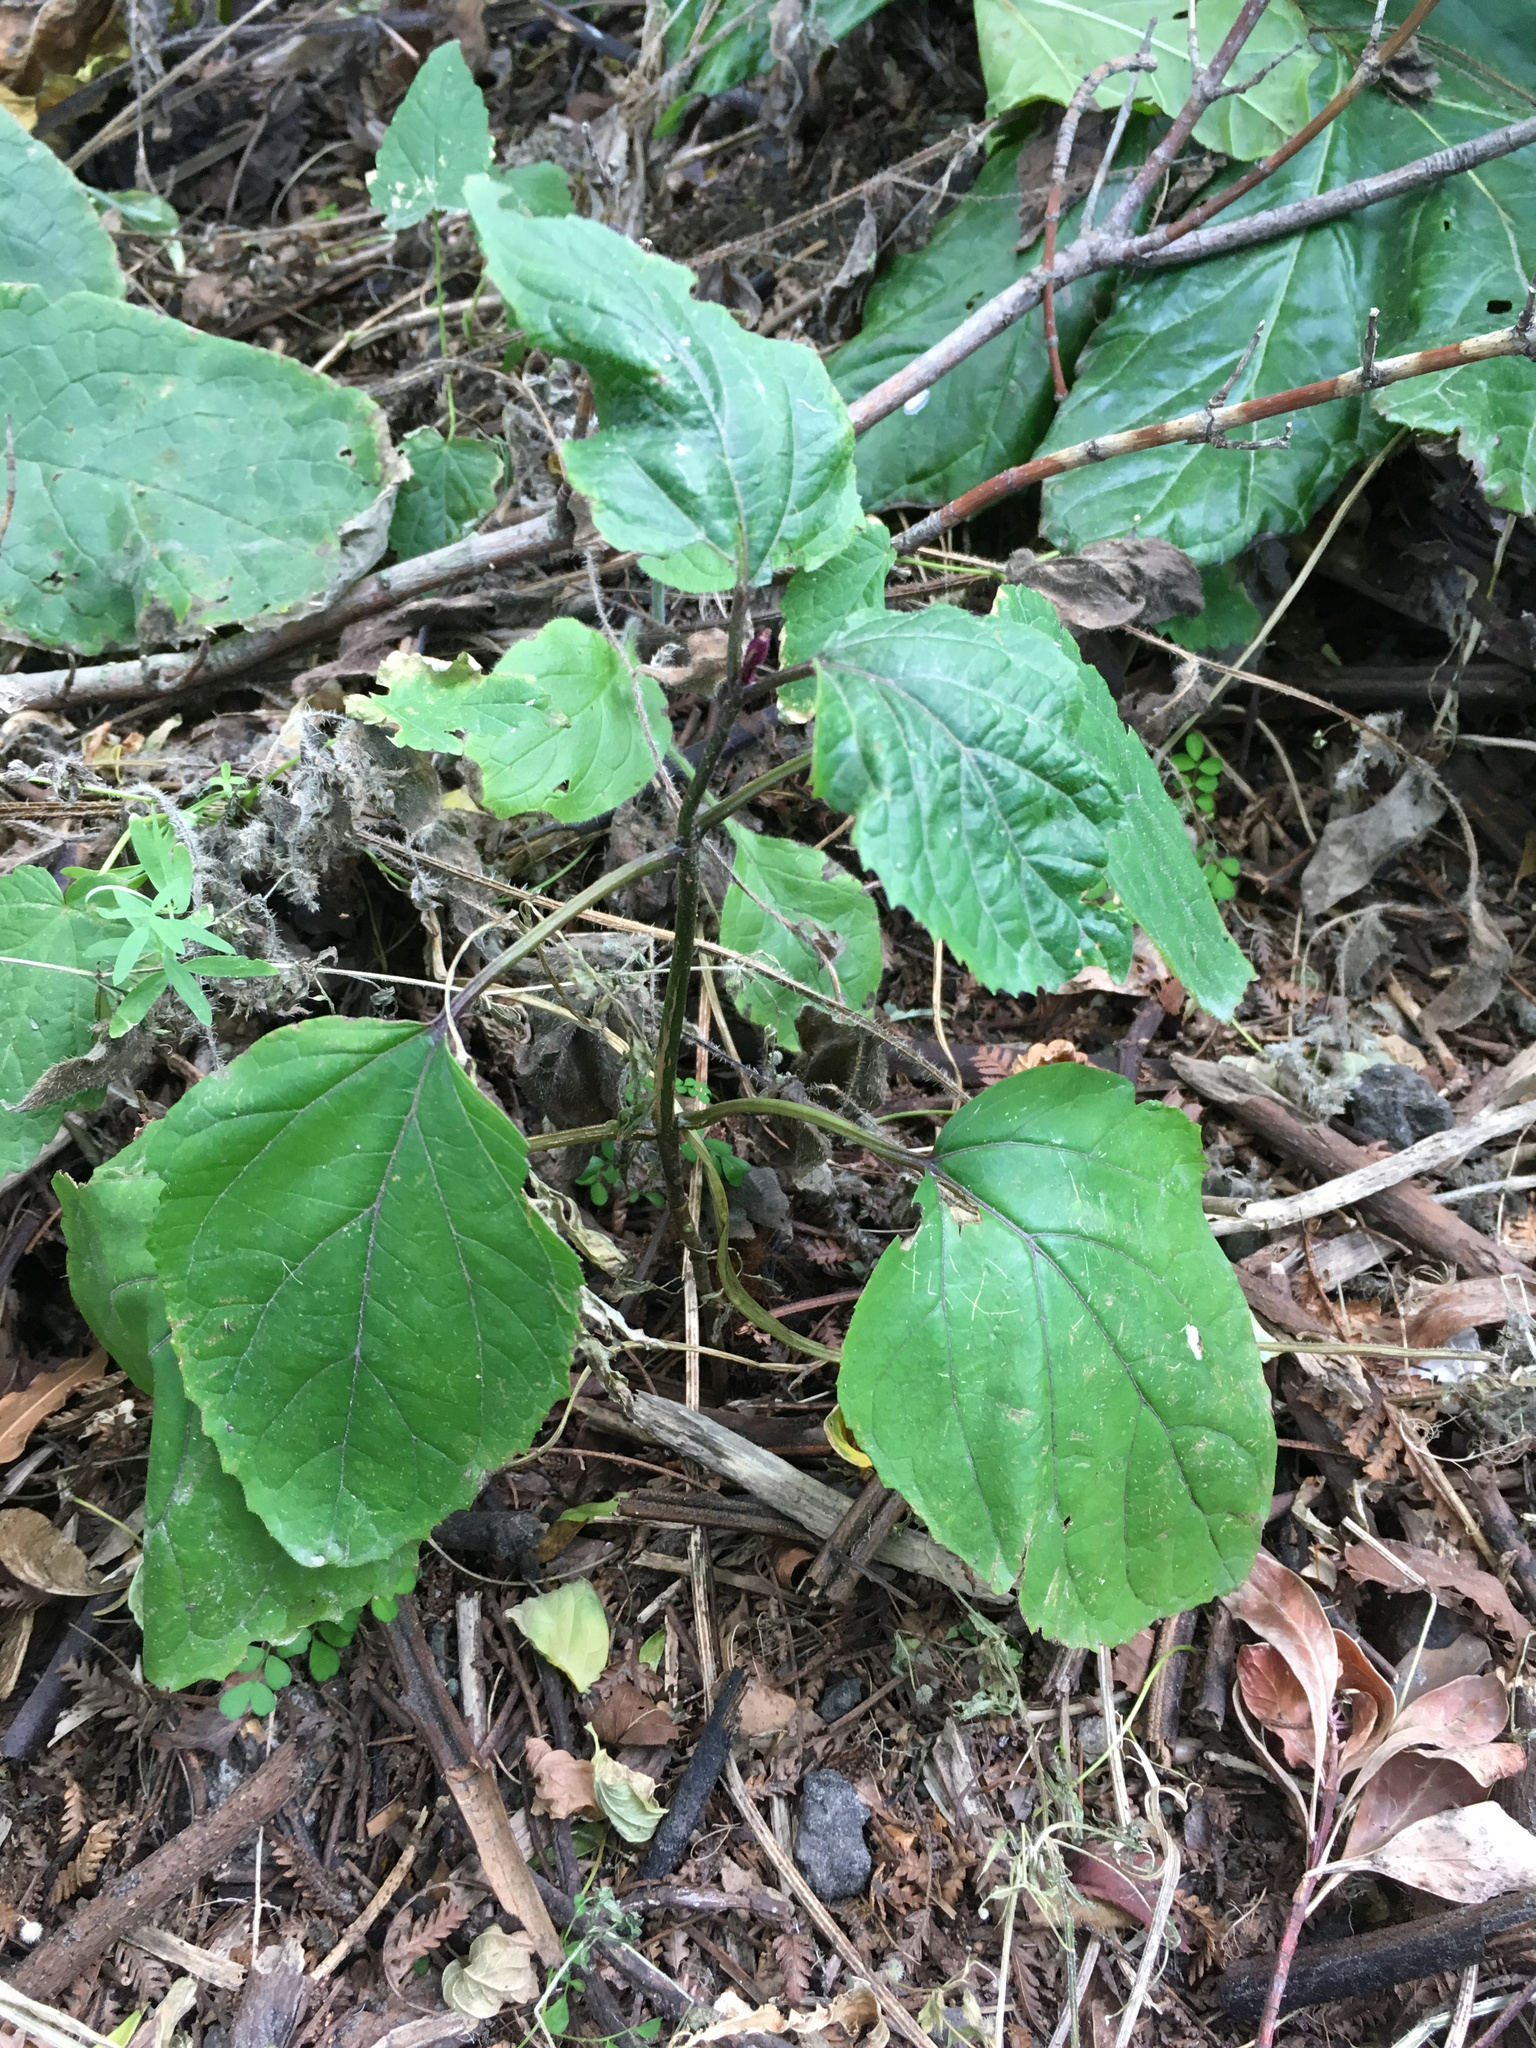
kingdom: Plantae
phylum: Tracheophyta
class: Magnoliopsida
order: Lamiales
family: Lamiaceae
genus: Clerodendrum
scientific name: Clerodendrum bungei
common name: Rose glorybower
